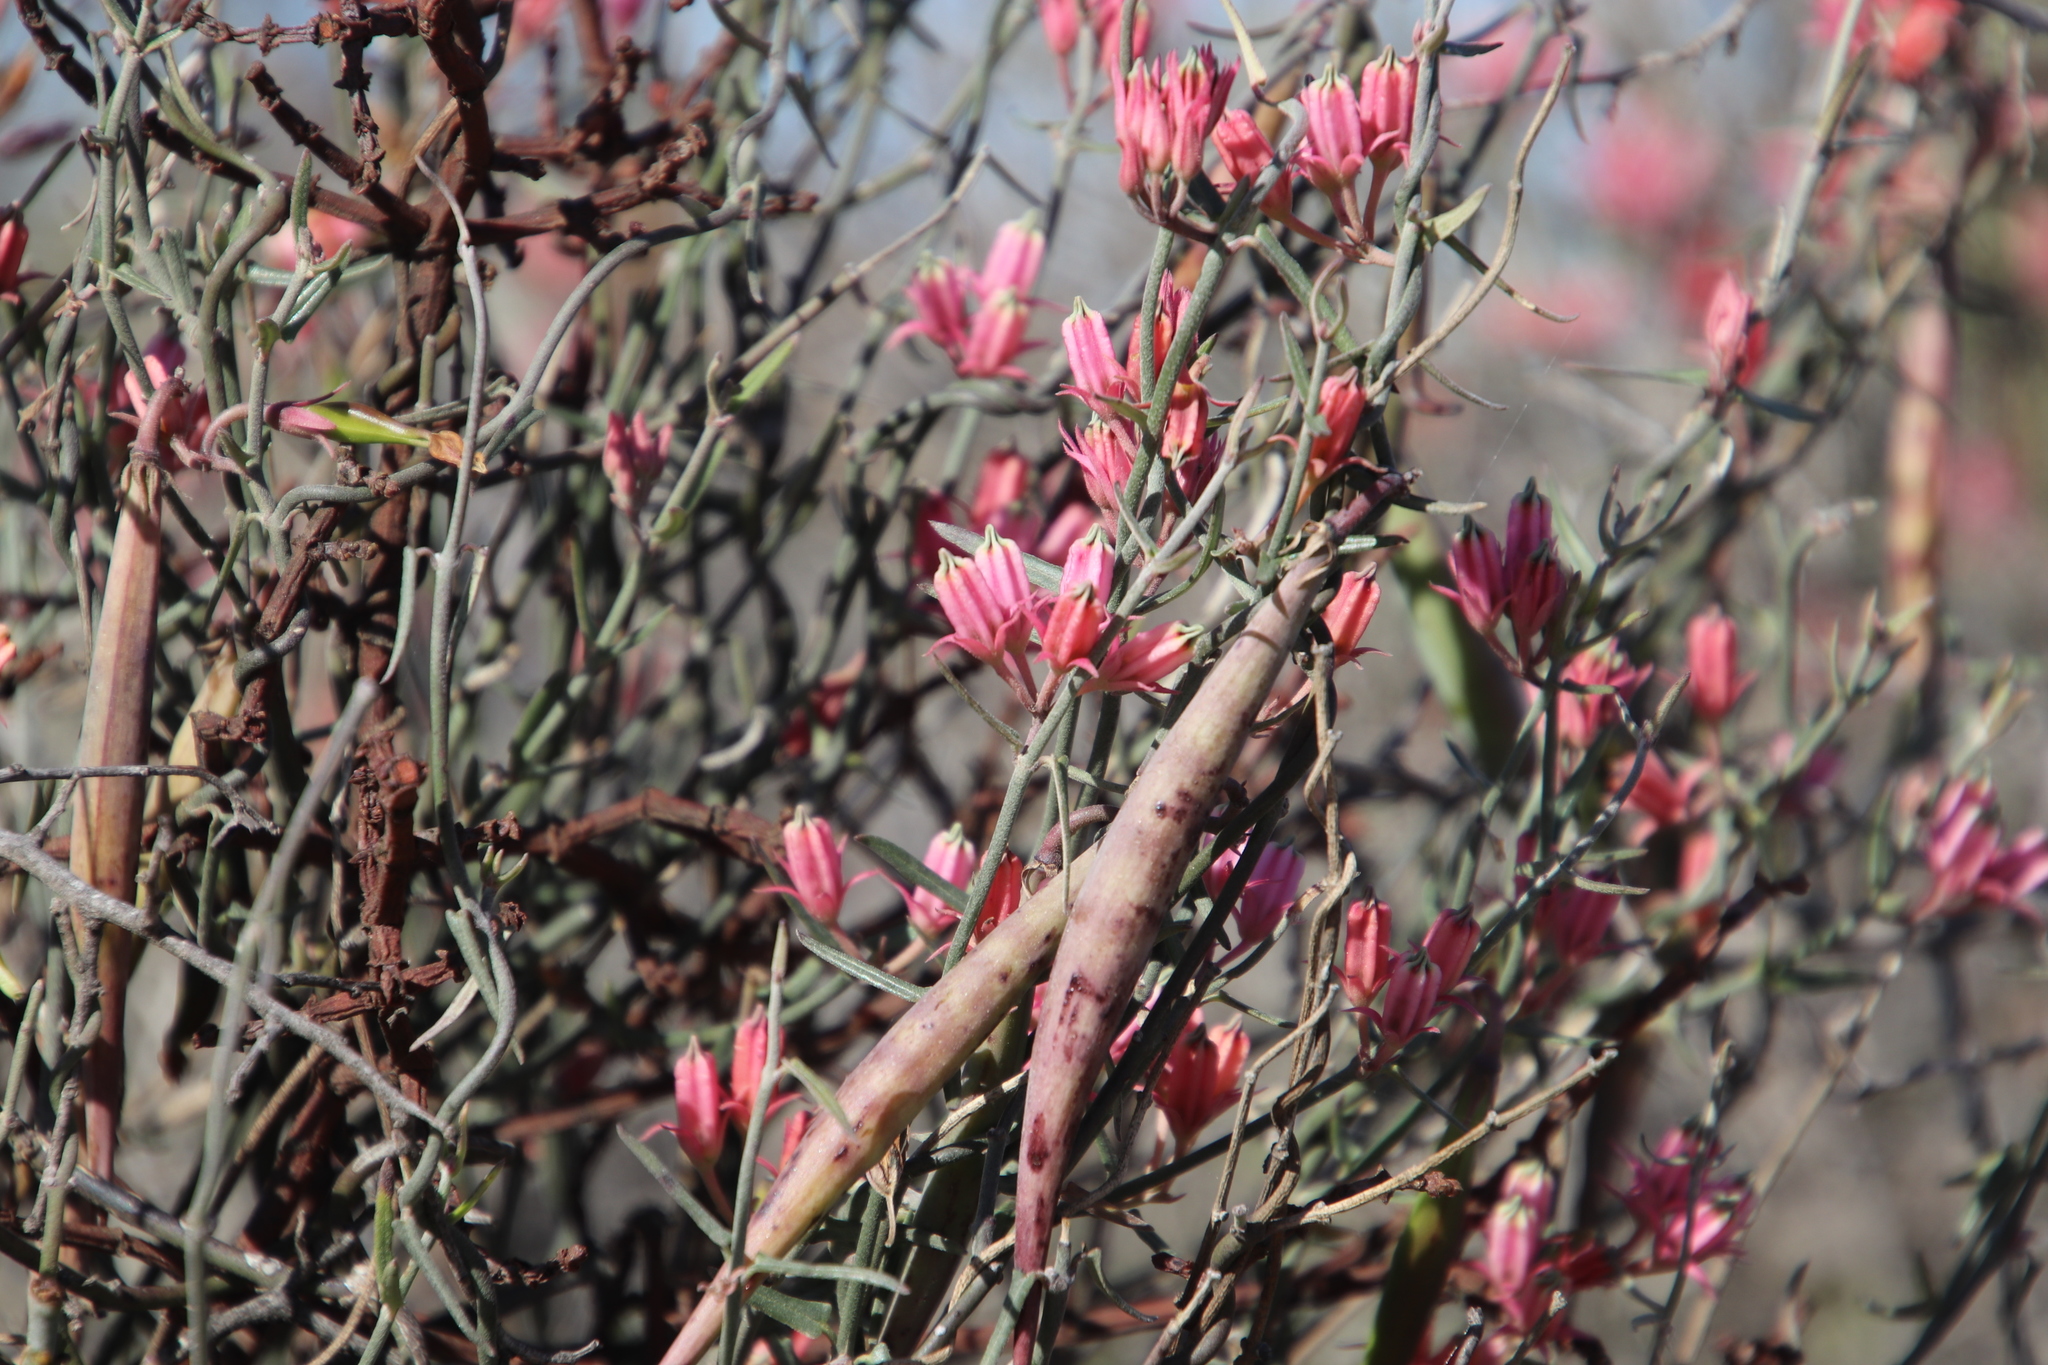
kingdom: Plantae
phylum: Tracheophyta
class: Magnoliopsida
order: Gentianales
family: Apocynaceae
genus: Microloma
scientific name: Microloma sagittatum
